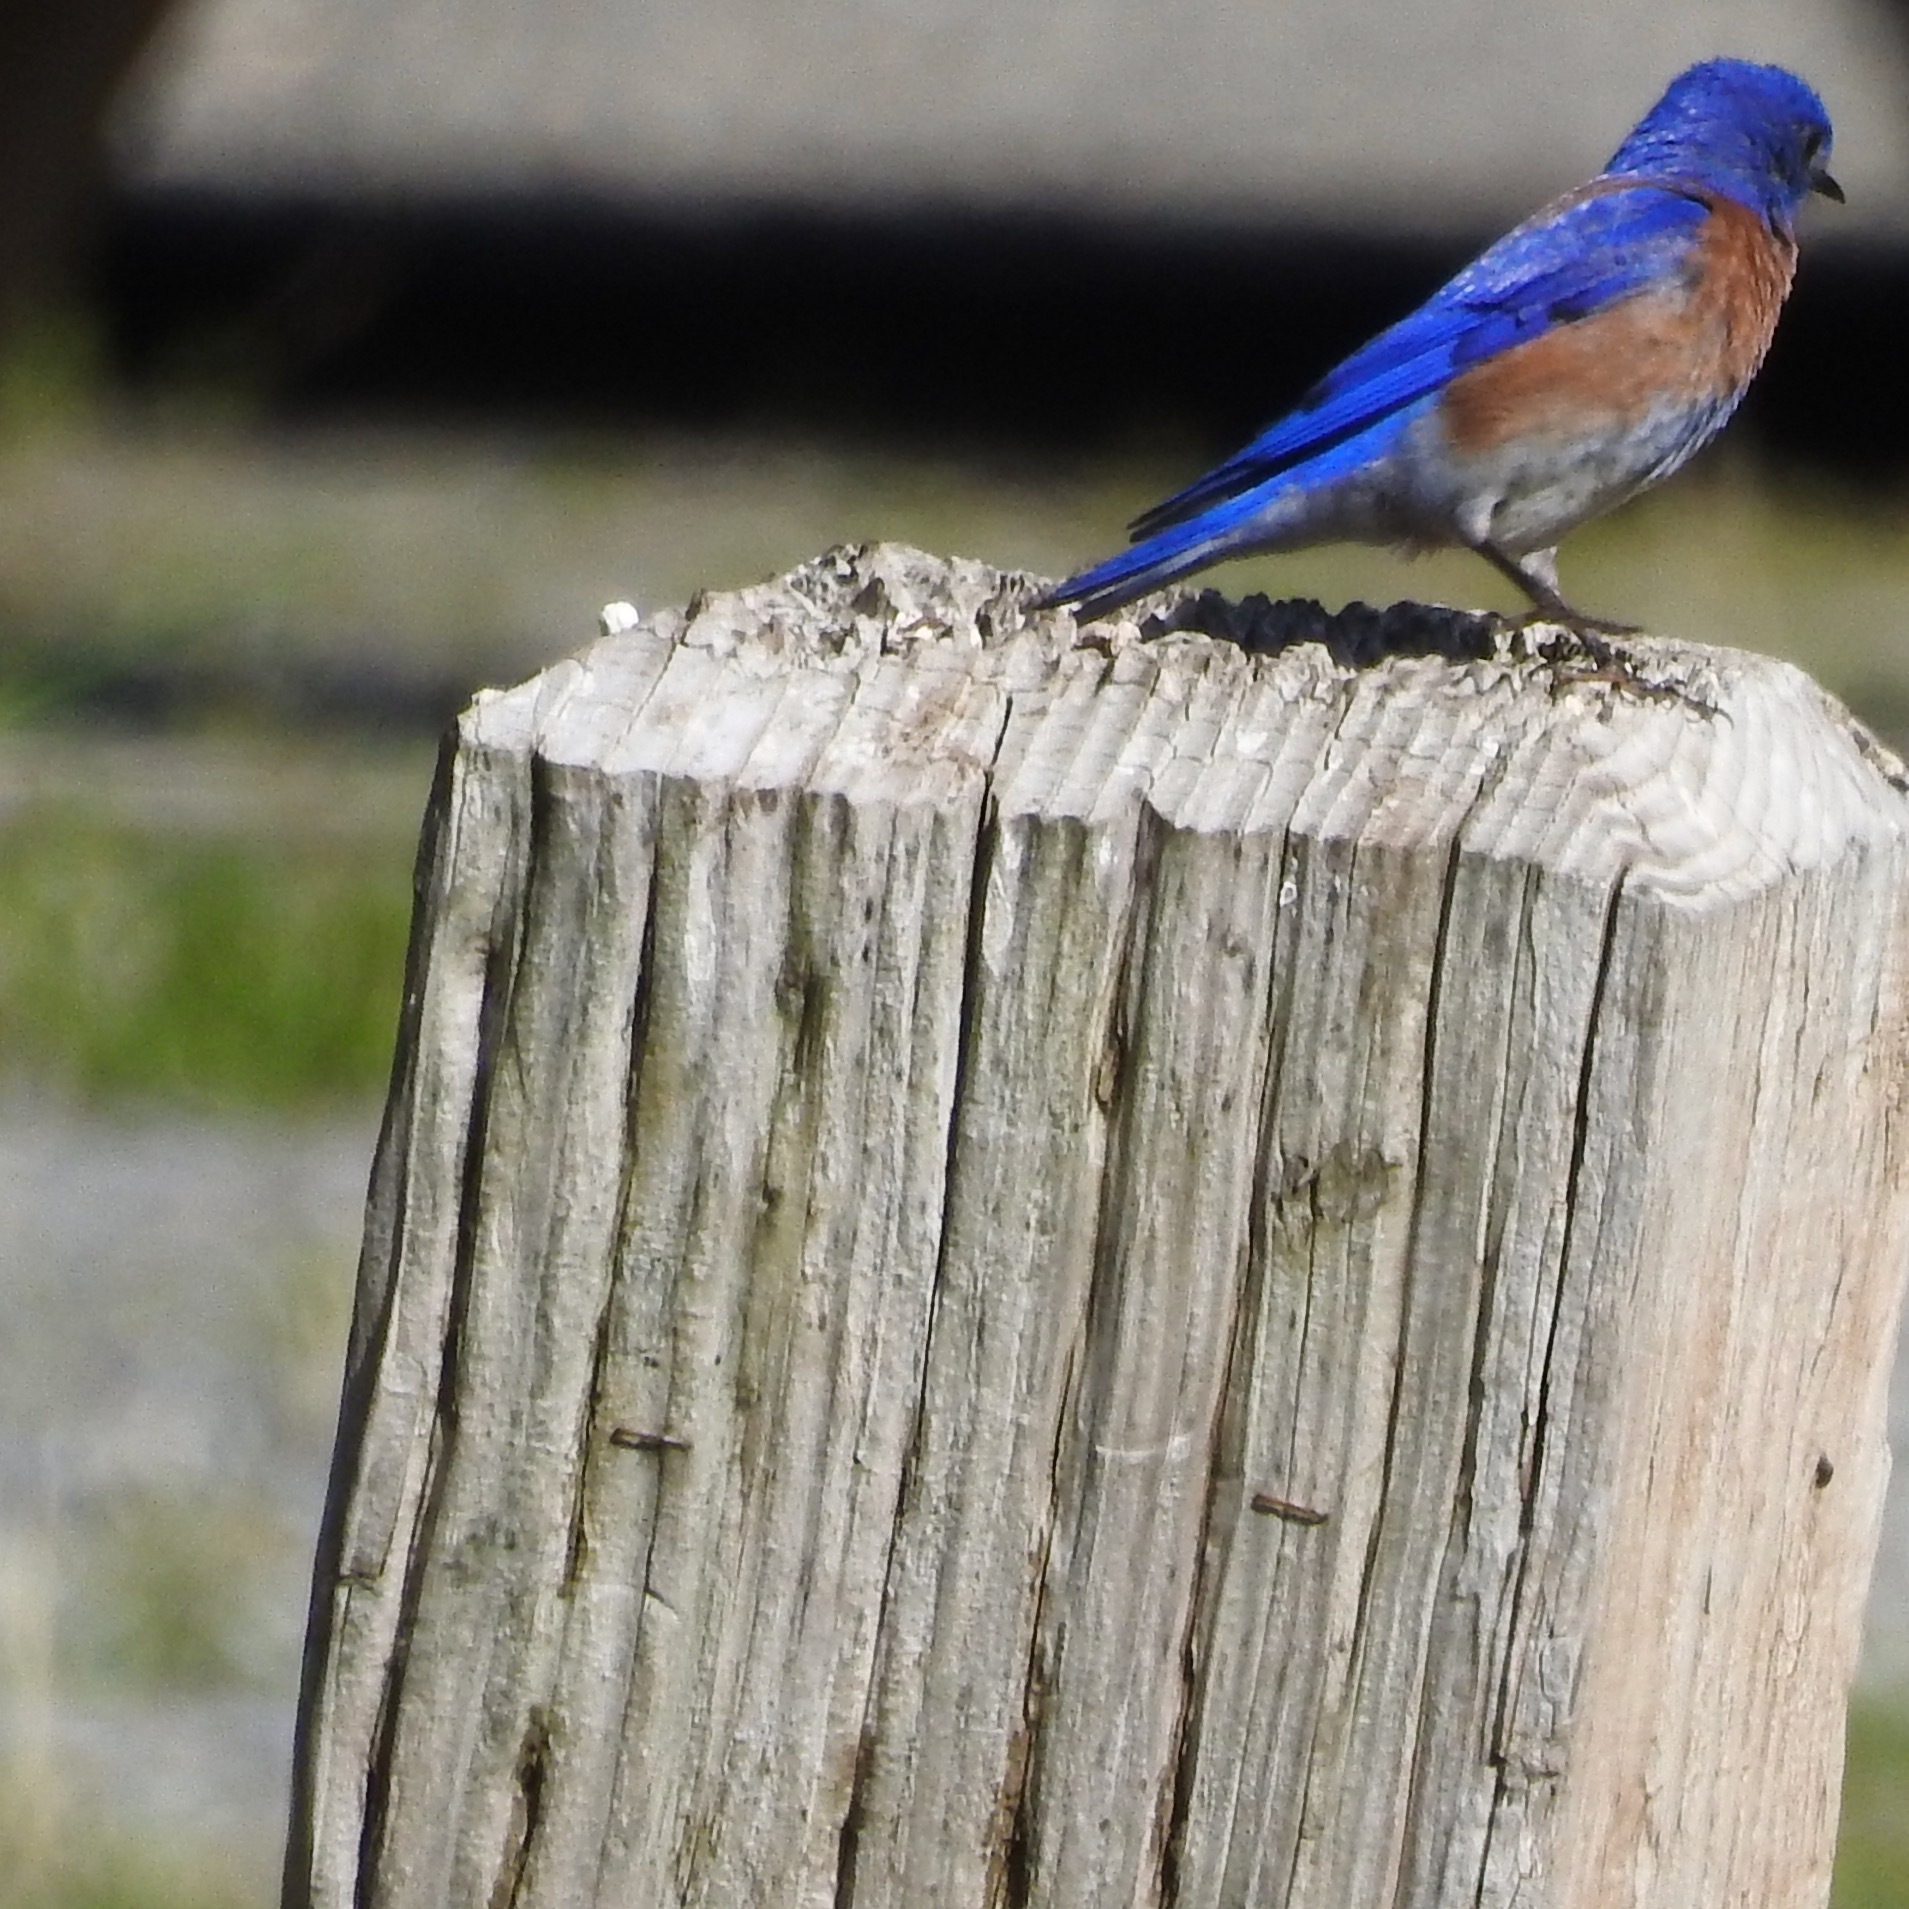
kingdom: Animalia
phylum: Chordata
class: Aves
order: Passeriformes
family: Turdidae
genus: Sialia
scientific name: Sialia mexicana
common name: Western bluebird
